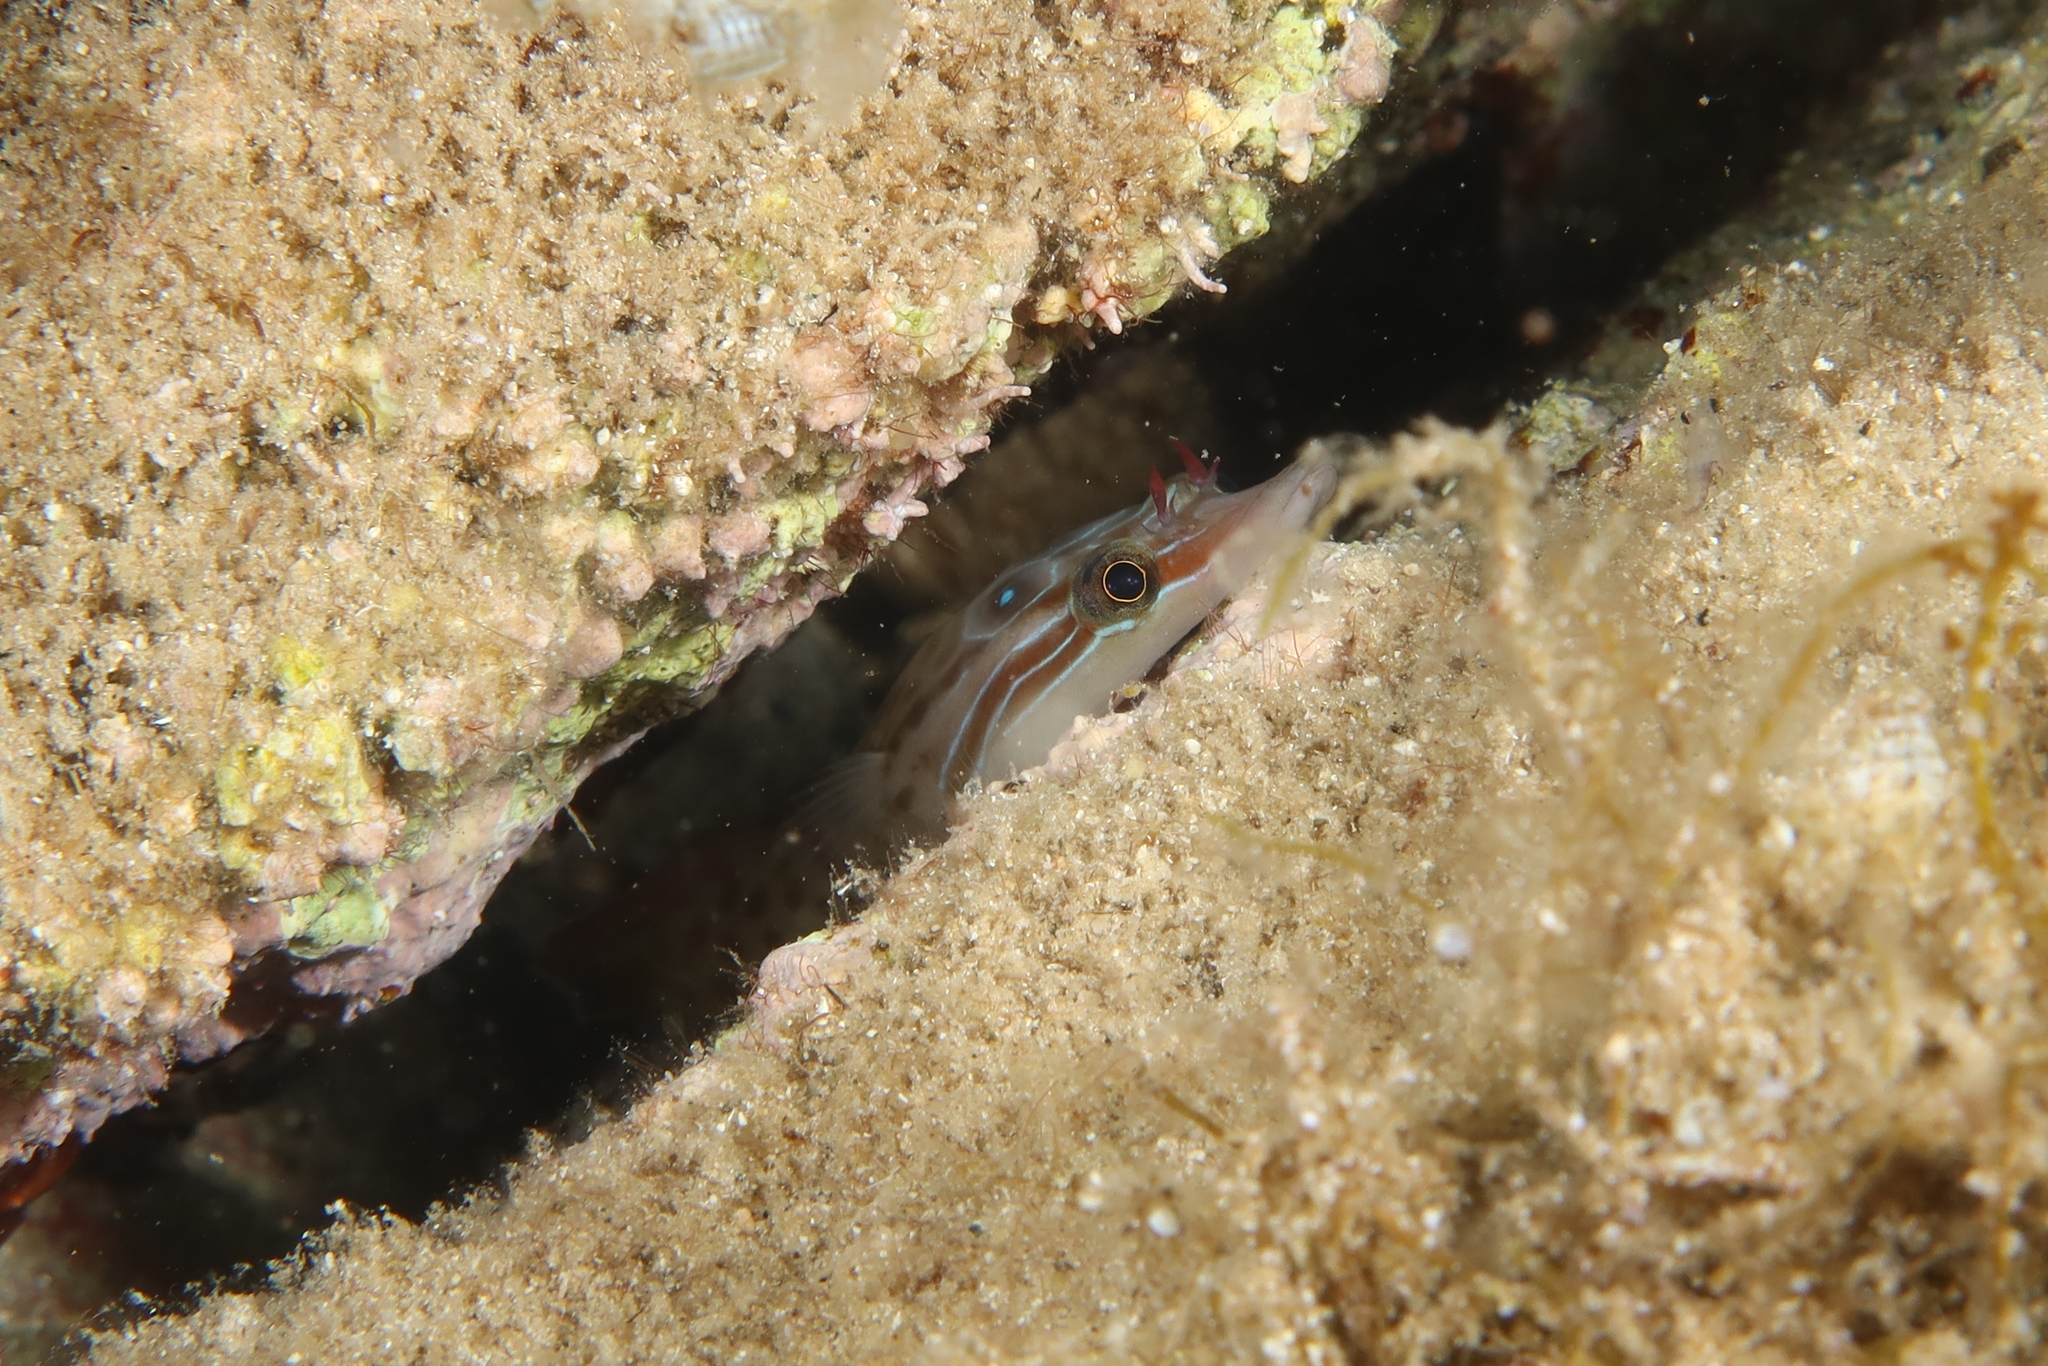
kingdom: Animalia
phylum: Chordata
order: Gobiesociformes
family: Gobiesocidae
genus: Lepadogaster
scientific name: Lepadogaster purpurea
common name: Cornish sucker
